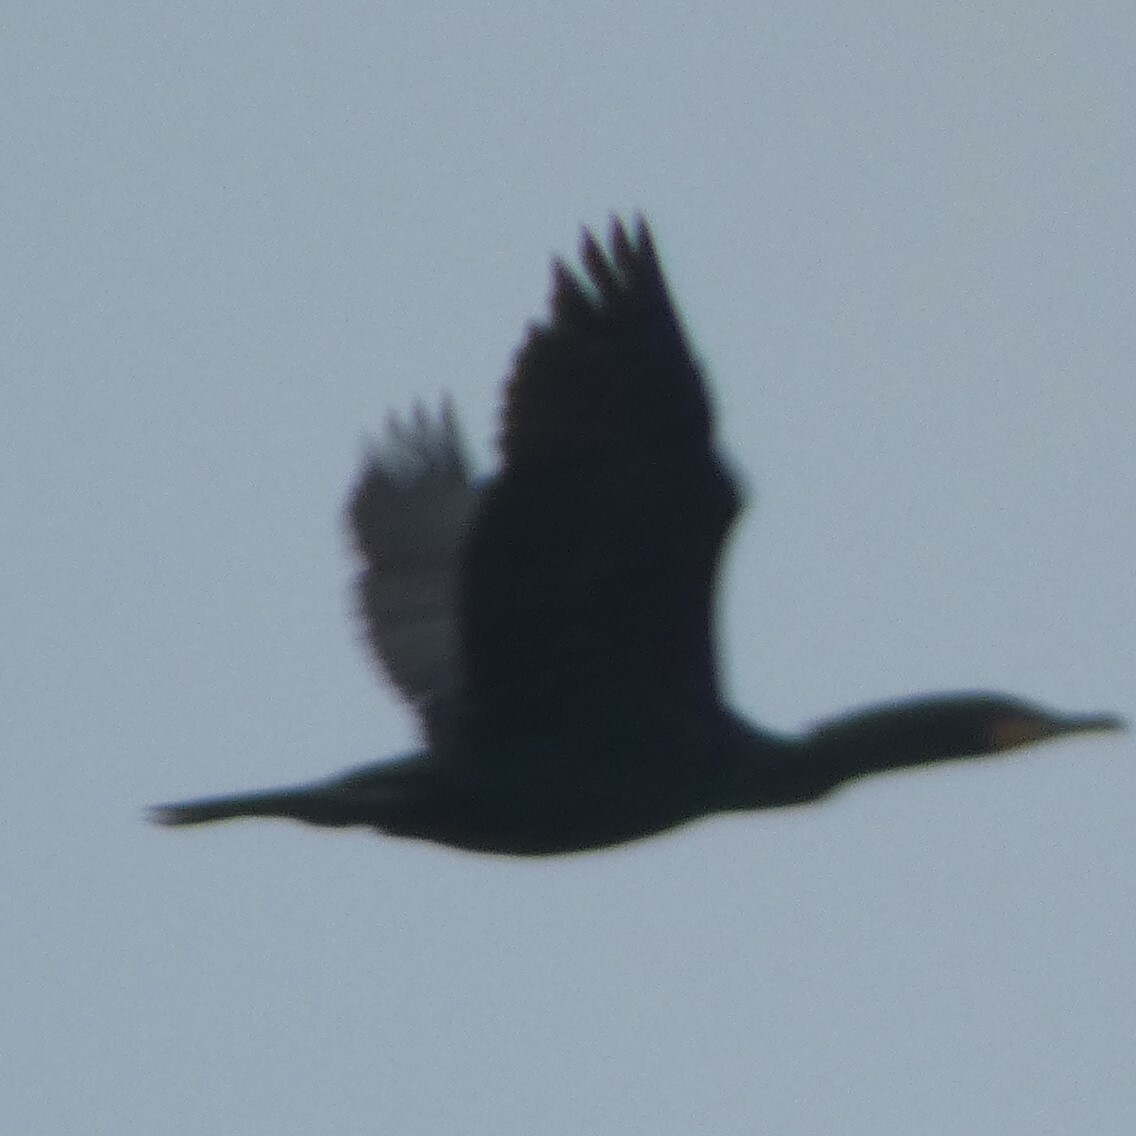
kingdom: Animalia
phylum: Chordata
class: Aves
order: Suliformes
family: Phalacrocoracidae
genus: Phalacrocorax
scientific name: Phalacrocorax auritus
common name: Double-crested cormorant
